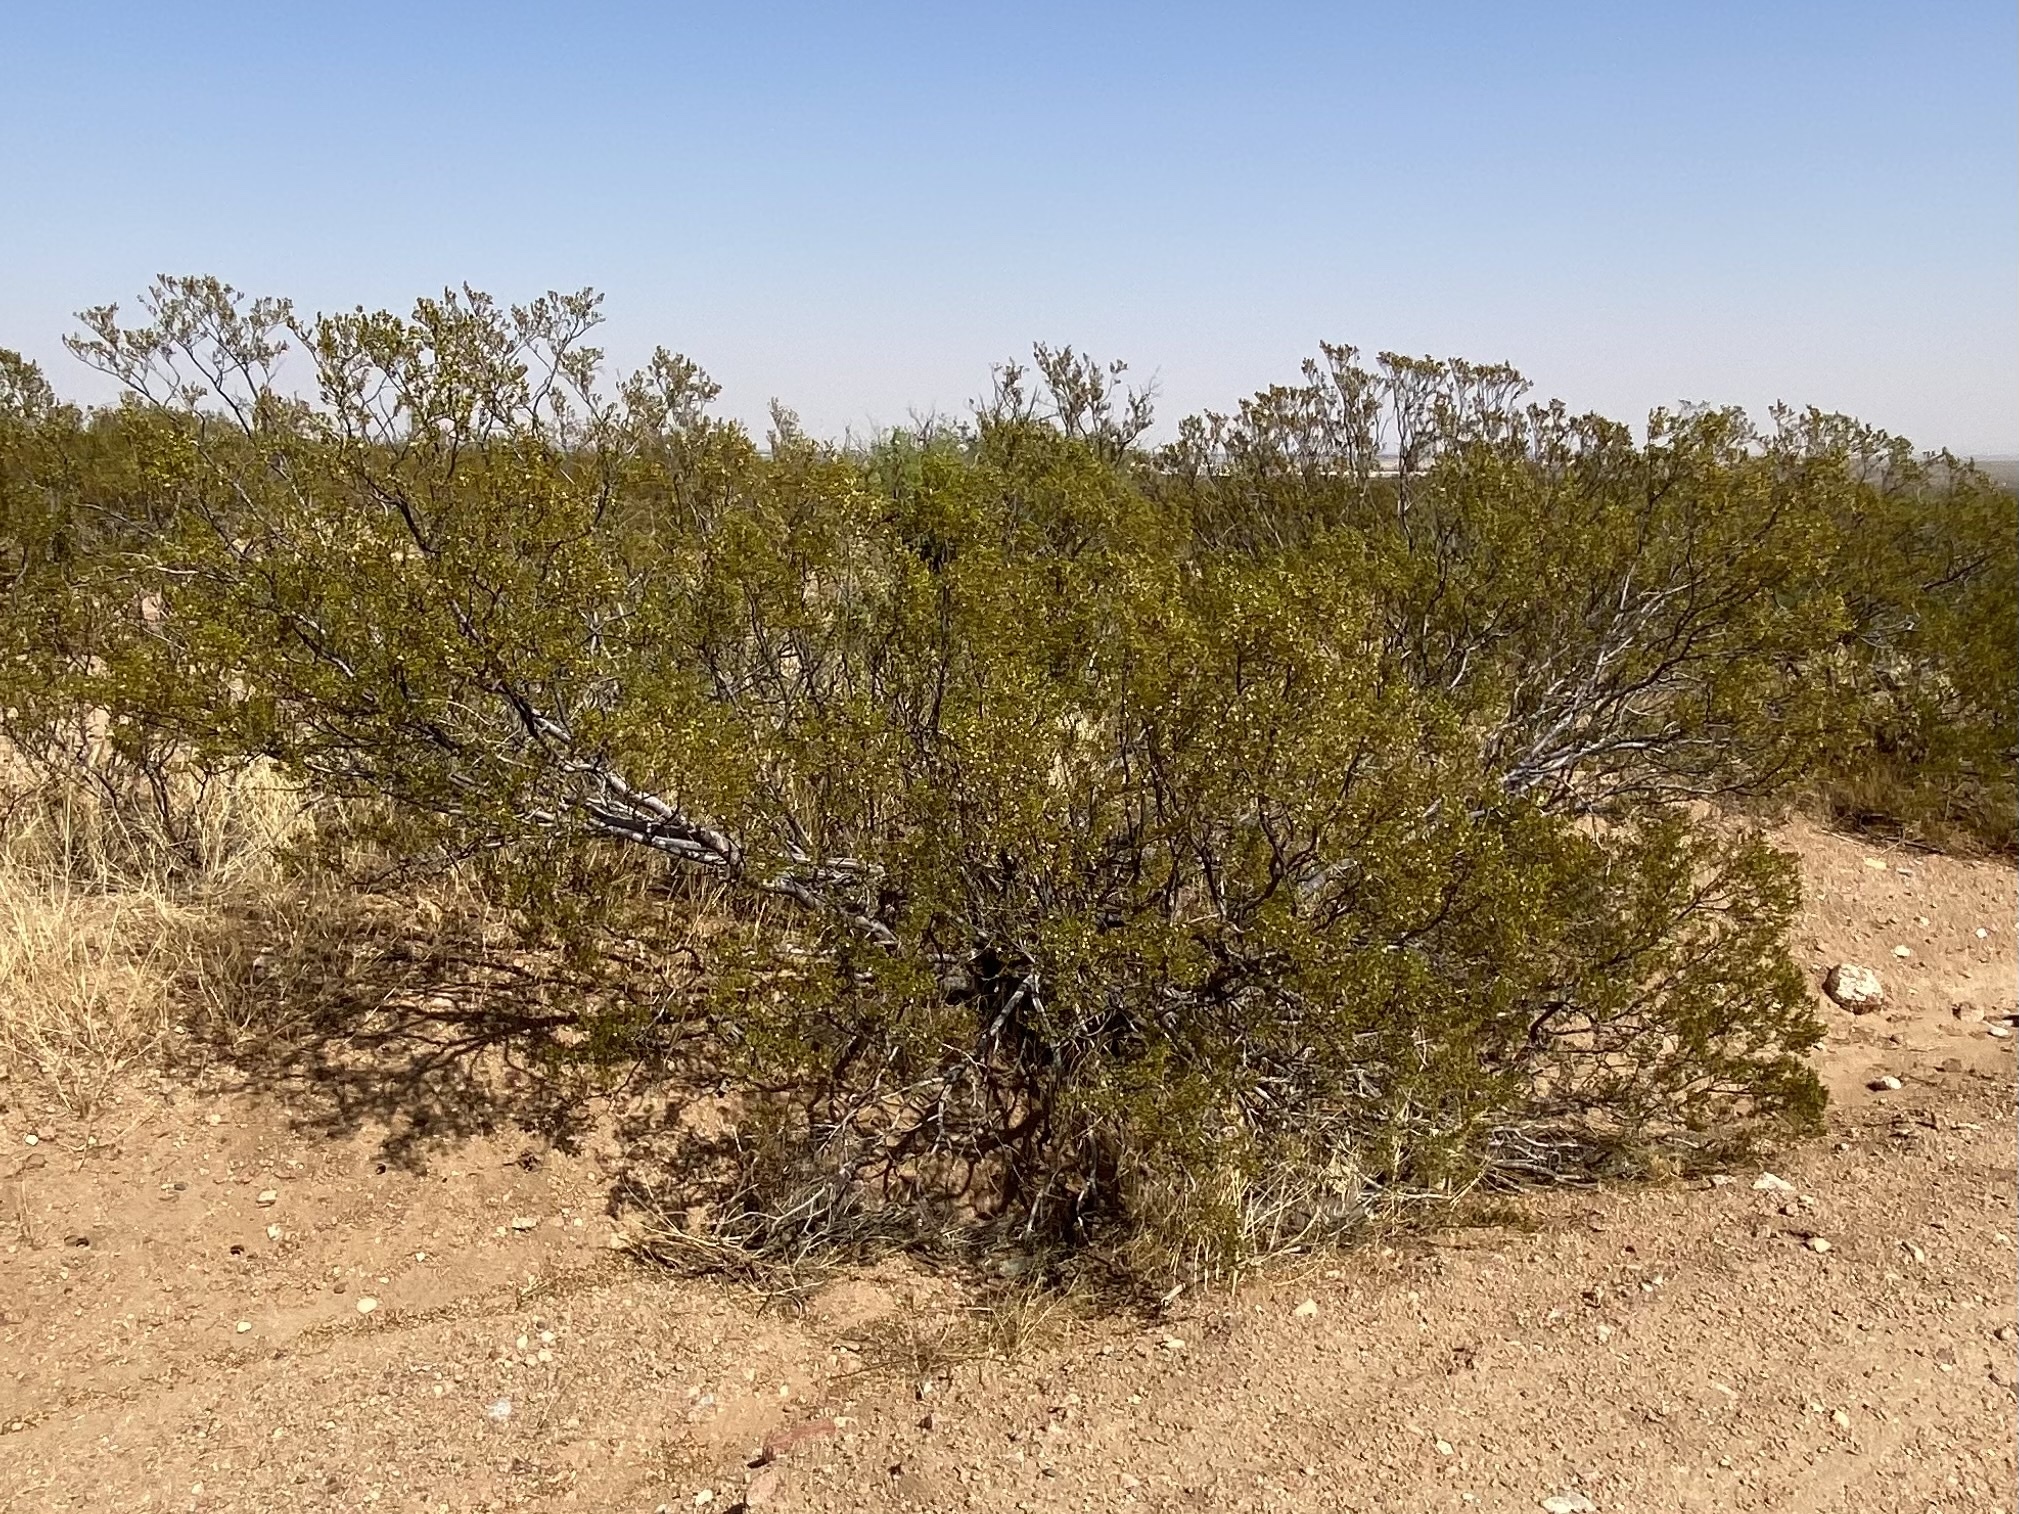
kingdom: Plantae
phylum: Tracheophyta
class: Magnoliopsida
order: Zygophyllales
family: Zygophyllaceae
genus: Larrea
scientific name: Larrea tridentata
